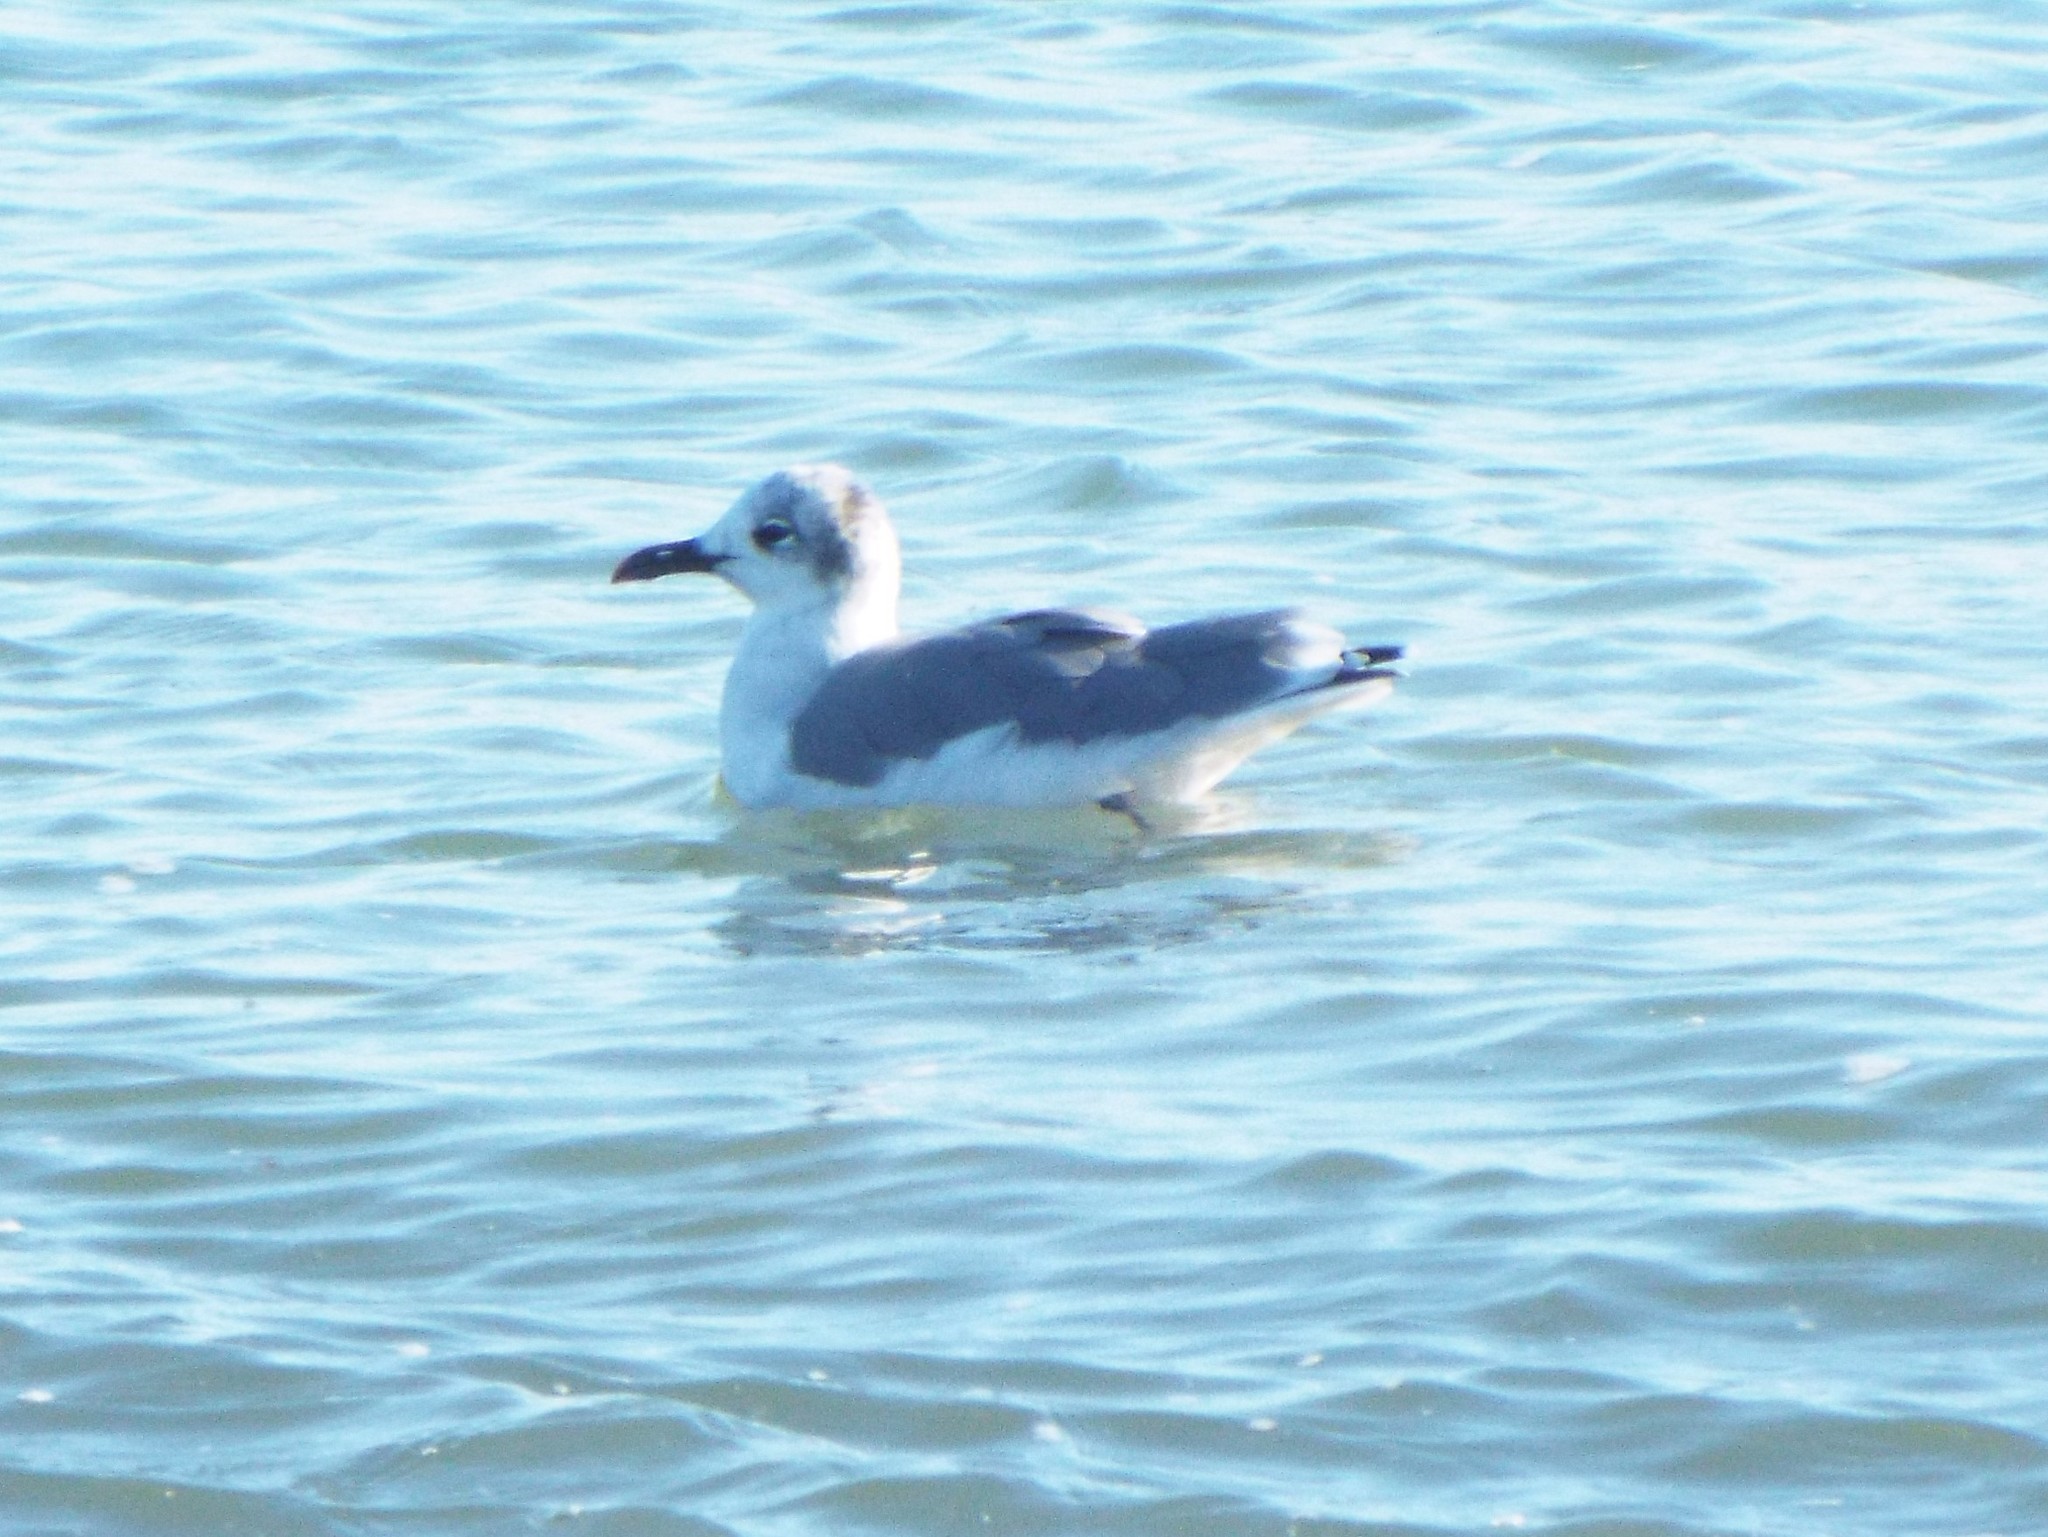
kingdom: Animalia
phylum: Chordata
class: Aves
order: Charadriiformes
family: Laridae
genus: Leucophaeus
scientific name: Leucophaeus atricilla
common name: Laughing gull
